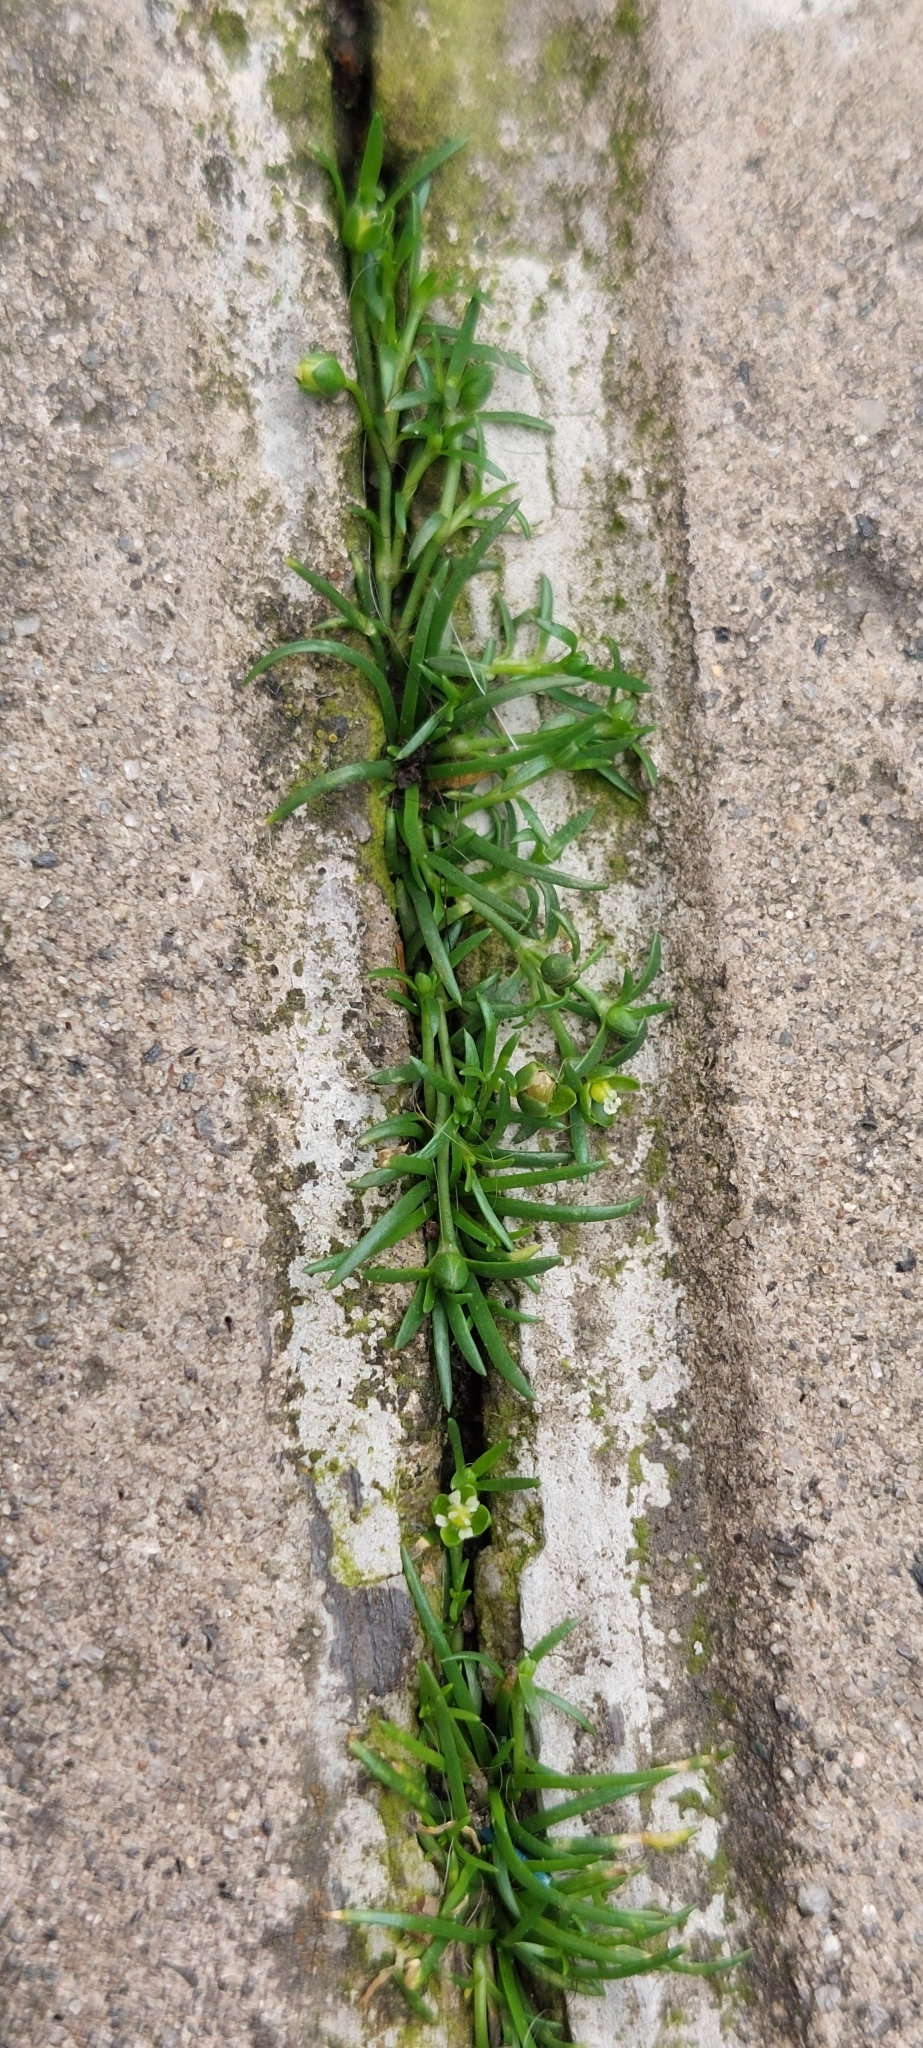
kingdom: Plantae
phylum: Tracheophyta
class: Magnoliopsida
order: Caryophyllales
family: Caryophyllaceae
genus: Sagina
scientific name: Sagina procumbens
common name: Procumbent pearlwort
